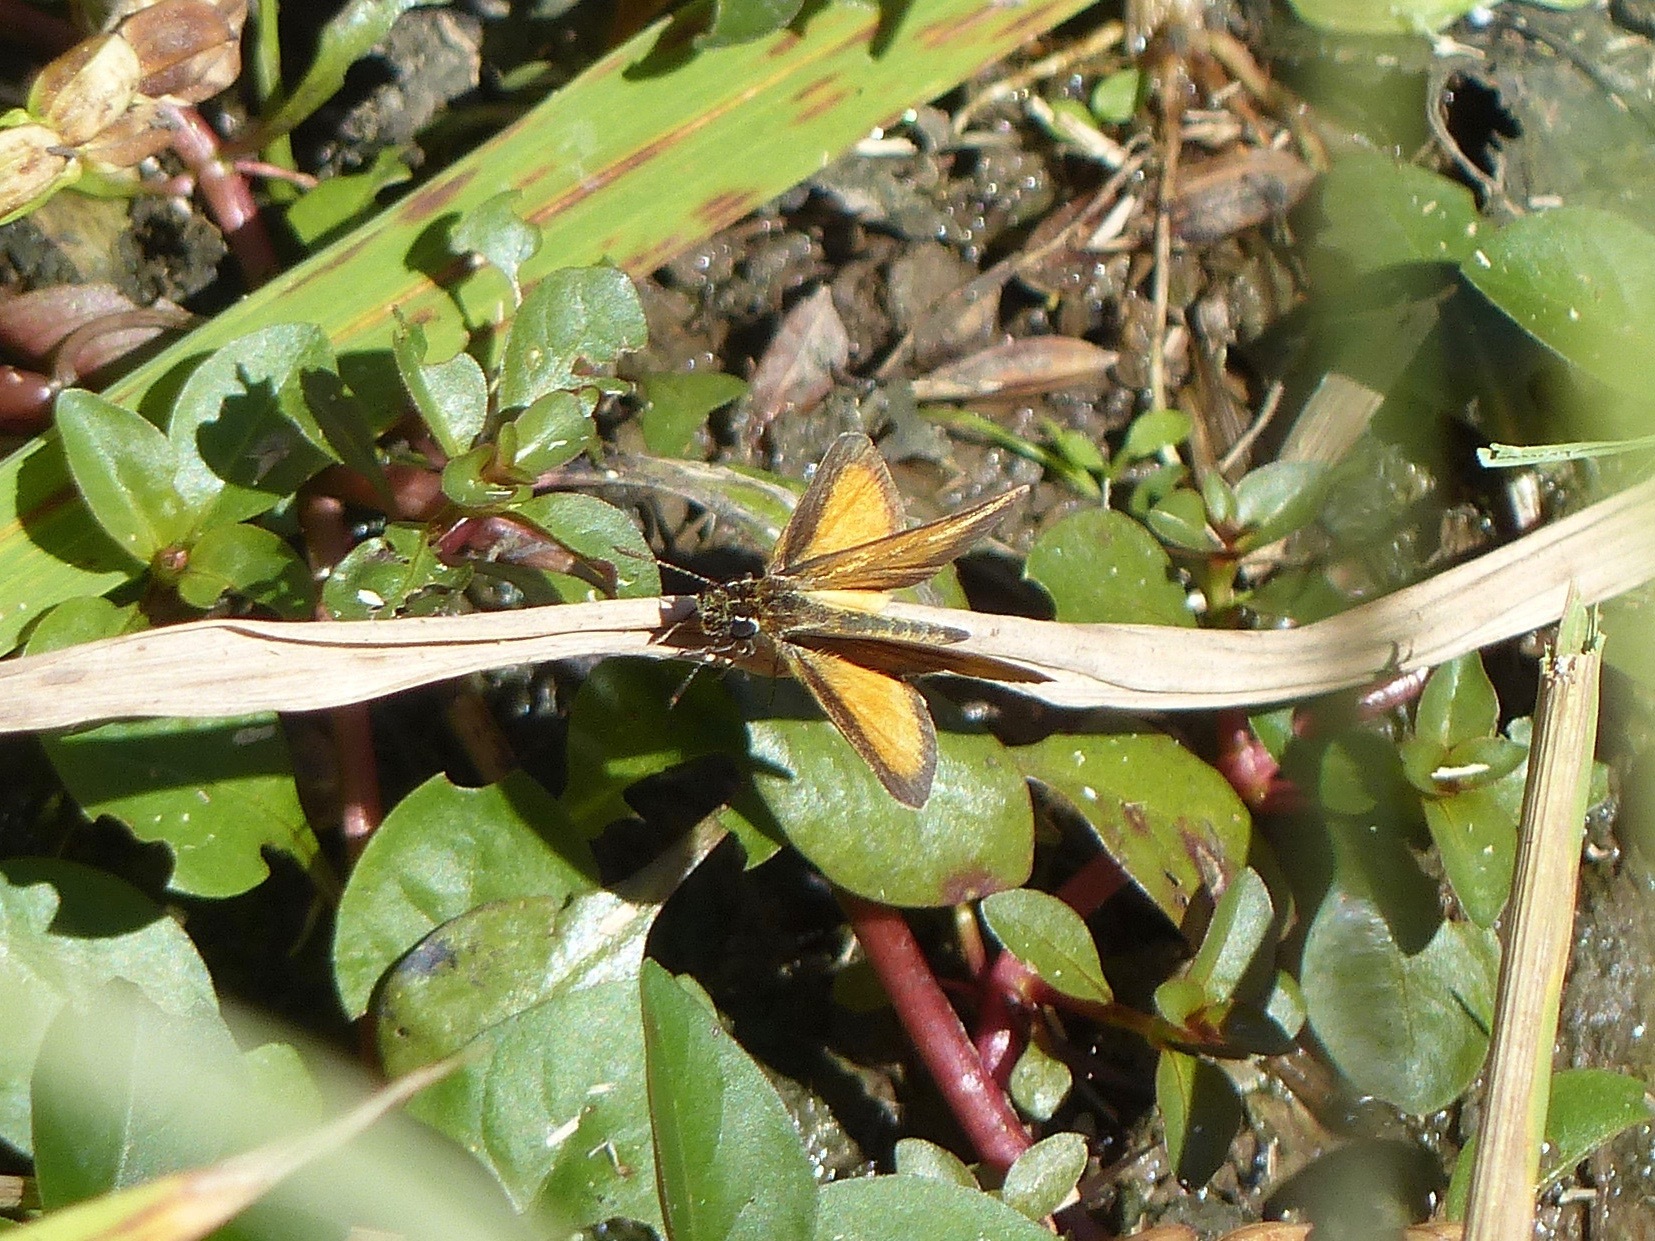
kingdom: Animalia
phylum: Arthropoda
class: Insecta
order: Lepidoptera
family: Hesperiidae
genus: Ancyloxypha
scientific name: Ancyloxypha numitor
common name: Least skipper
